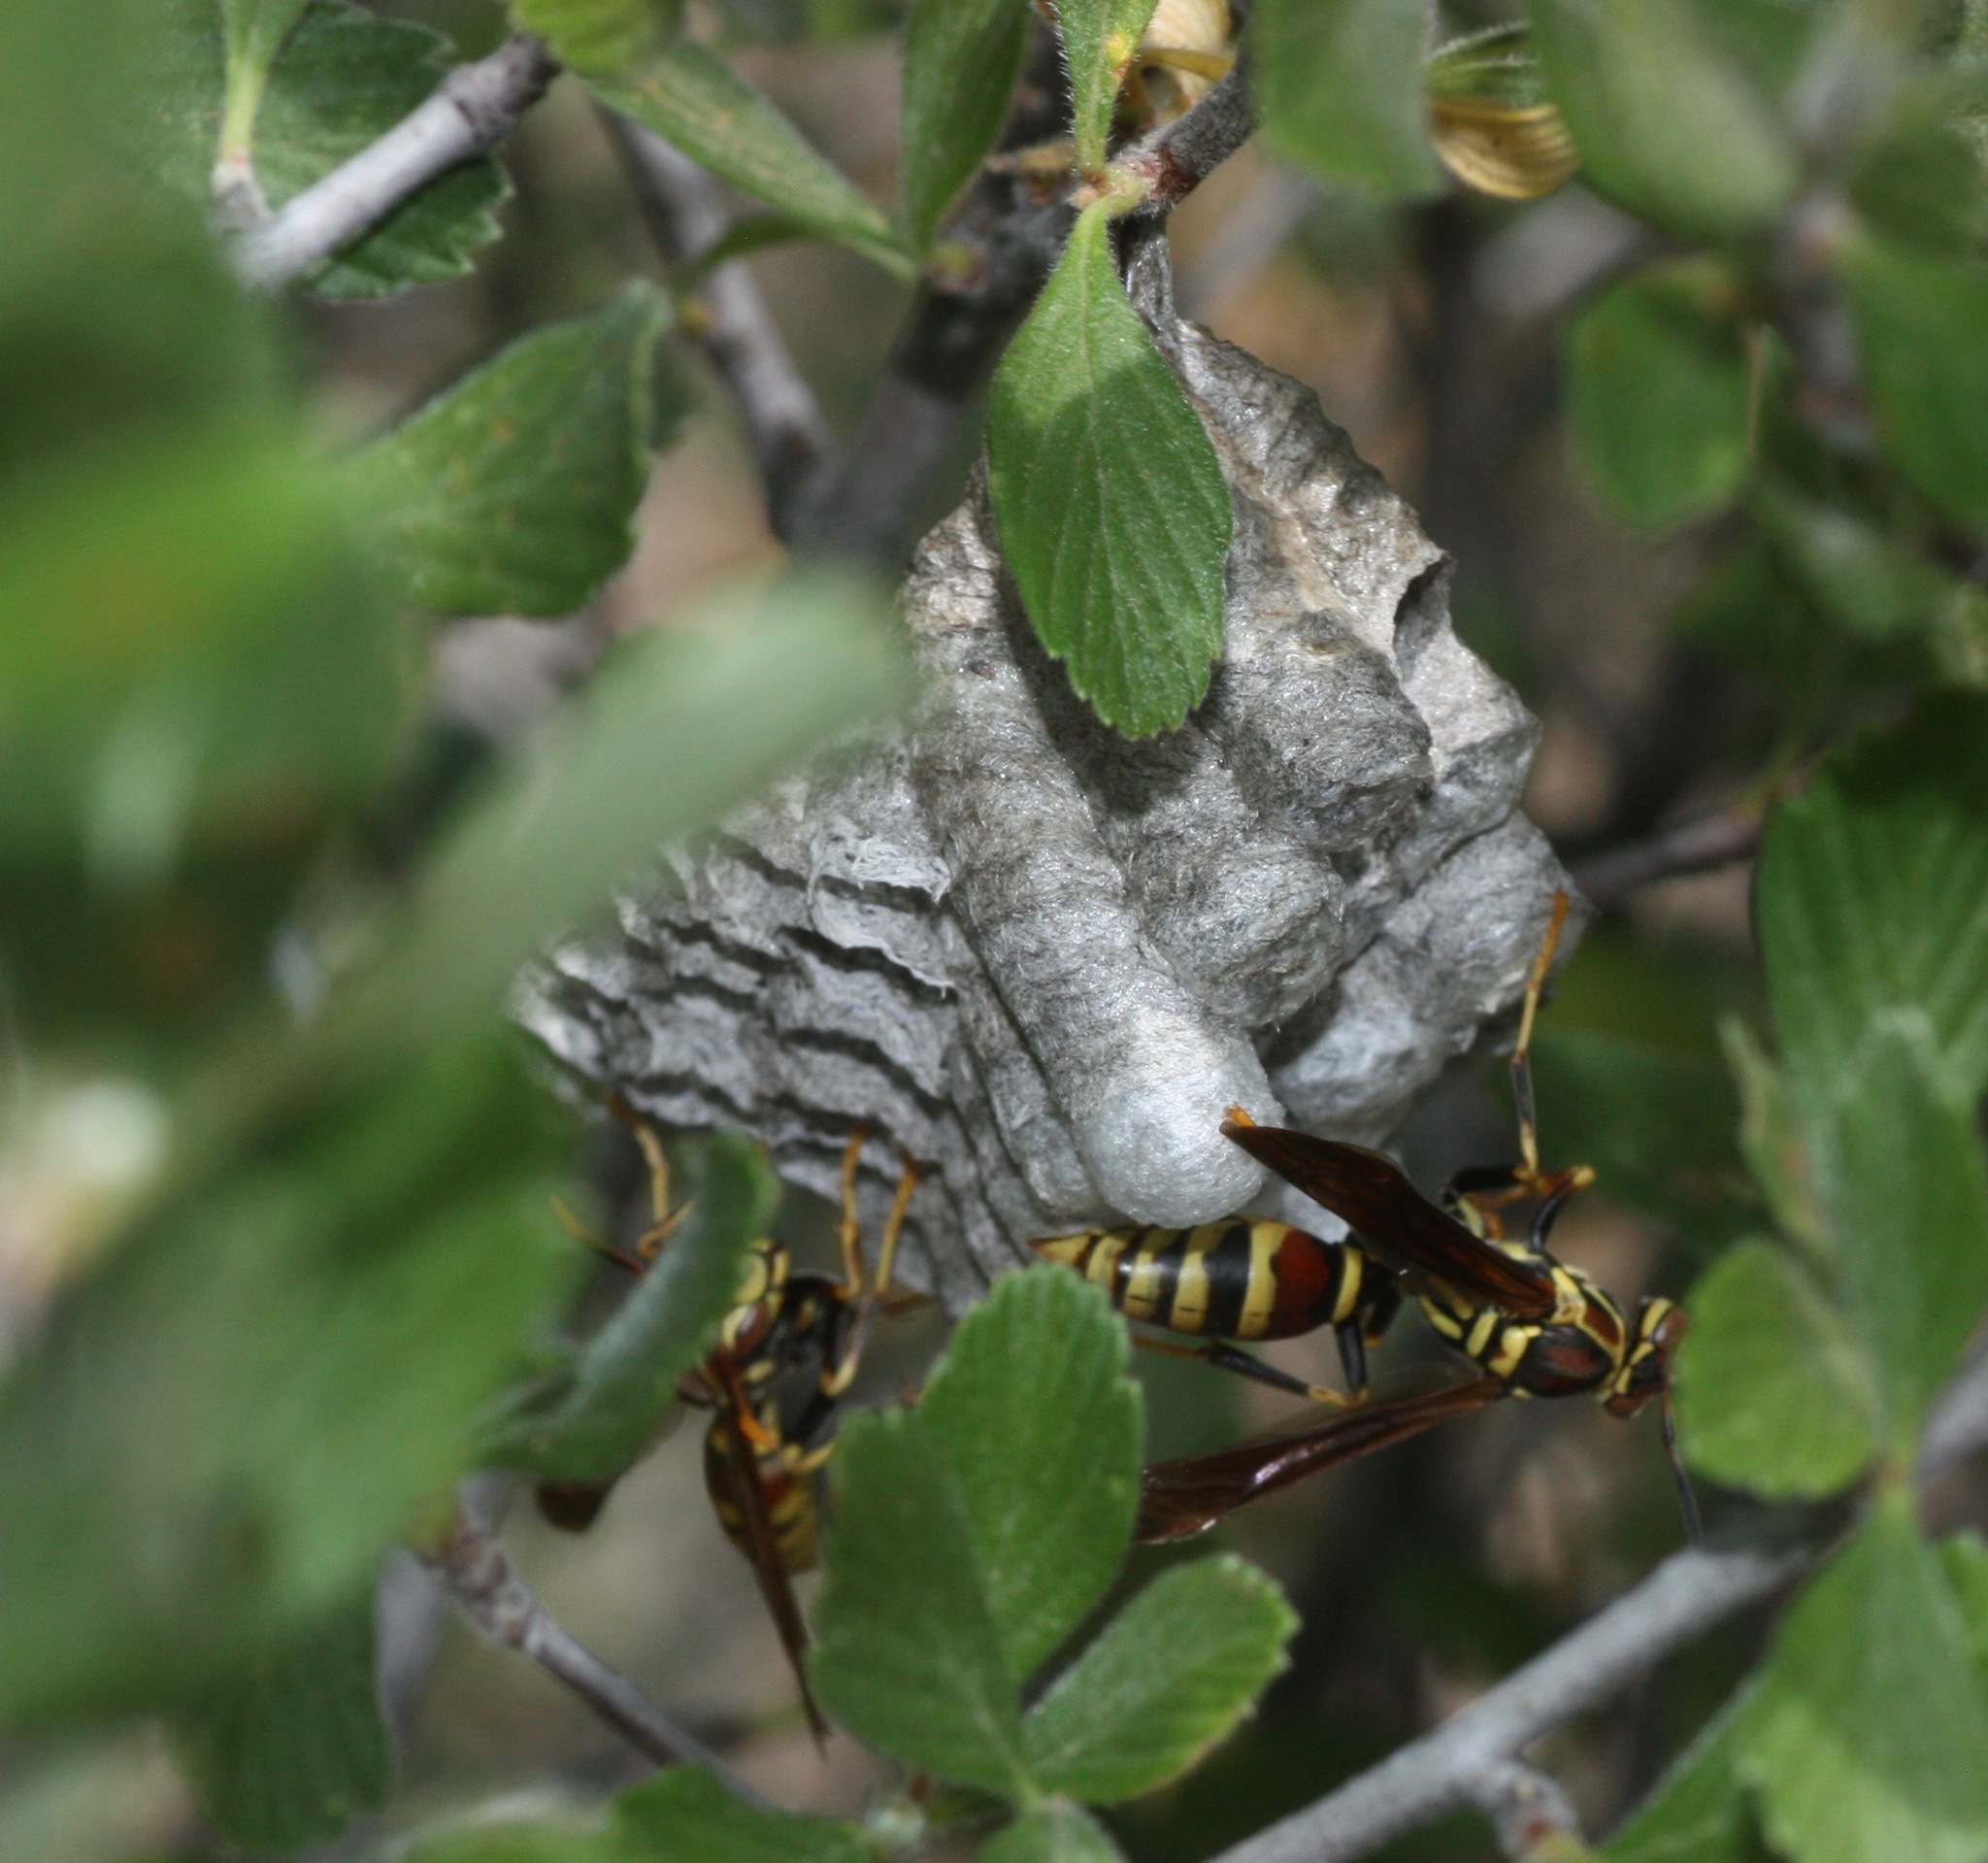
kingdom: Animalia
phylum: Arthropoda
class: Insecta
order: Hymenoptera
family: Eumenidae
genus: Polistes
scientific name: Polistes exclamans
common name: Paper wasp
